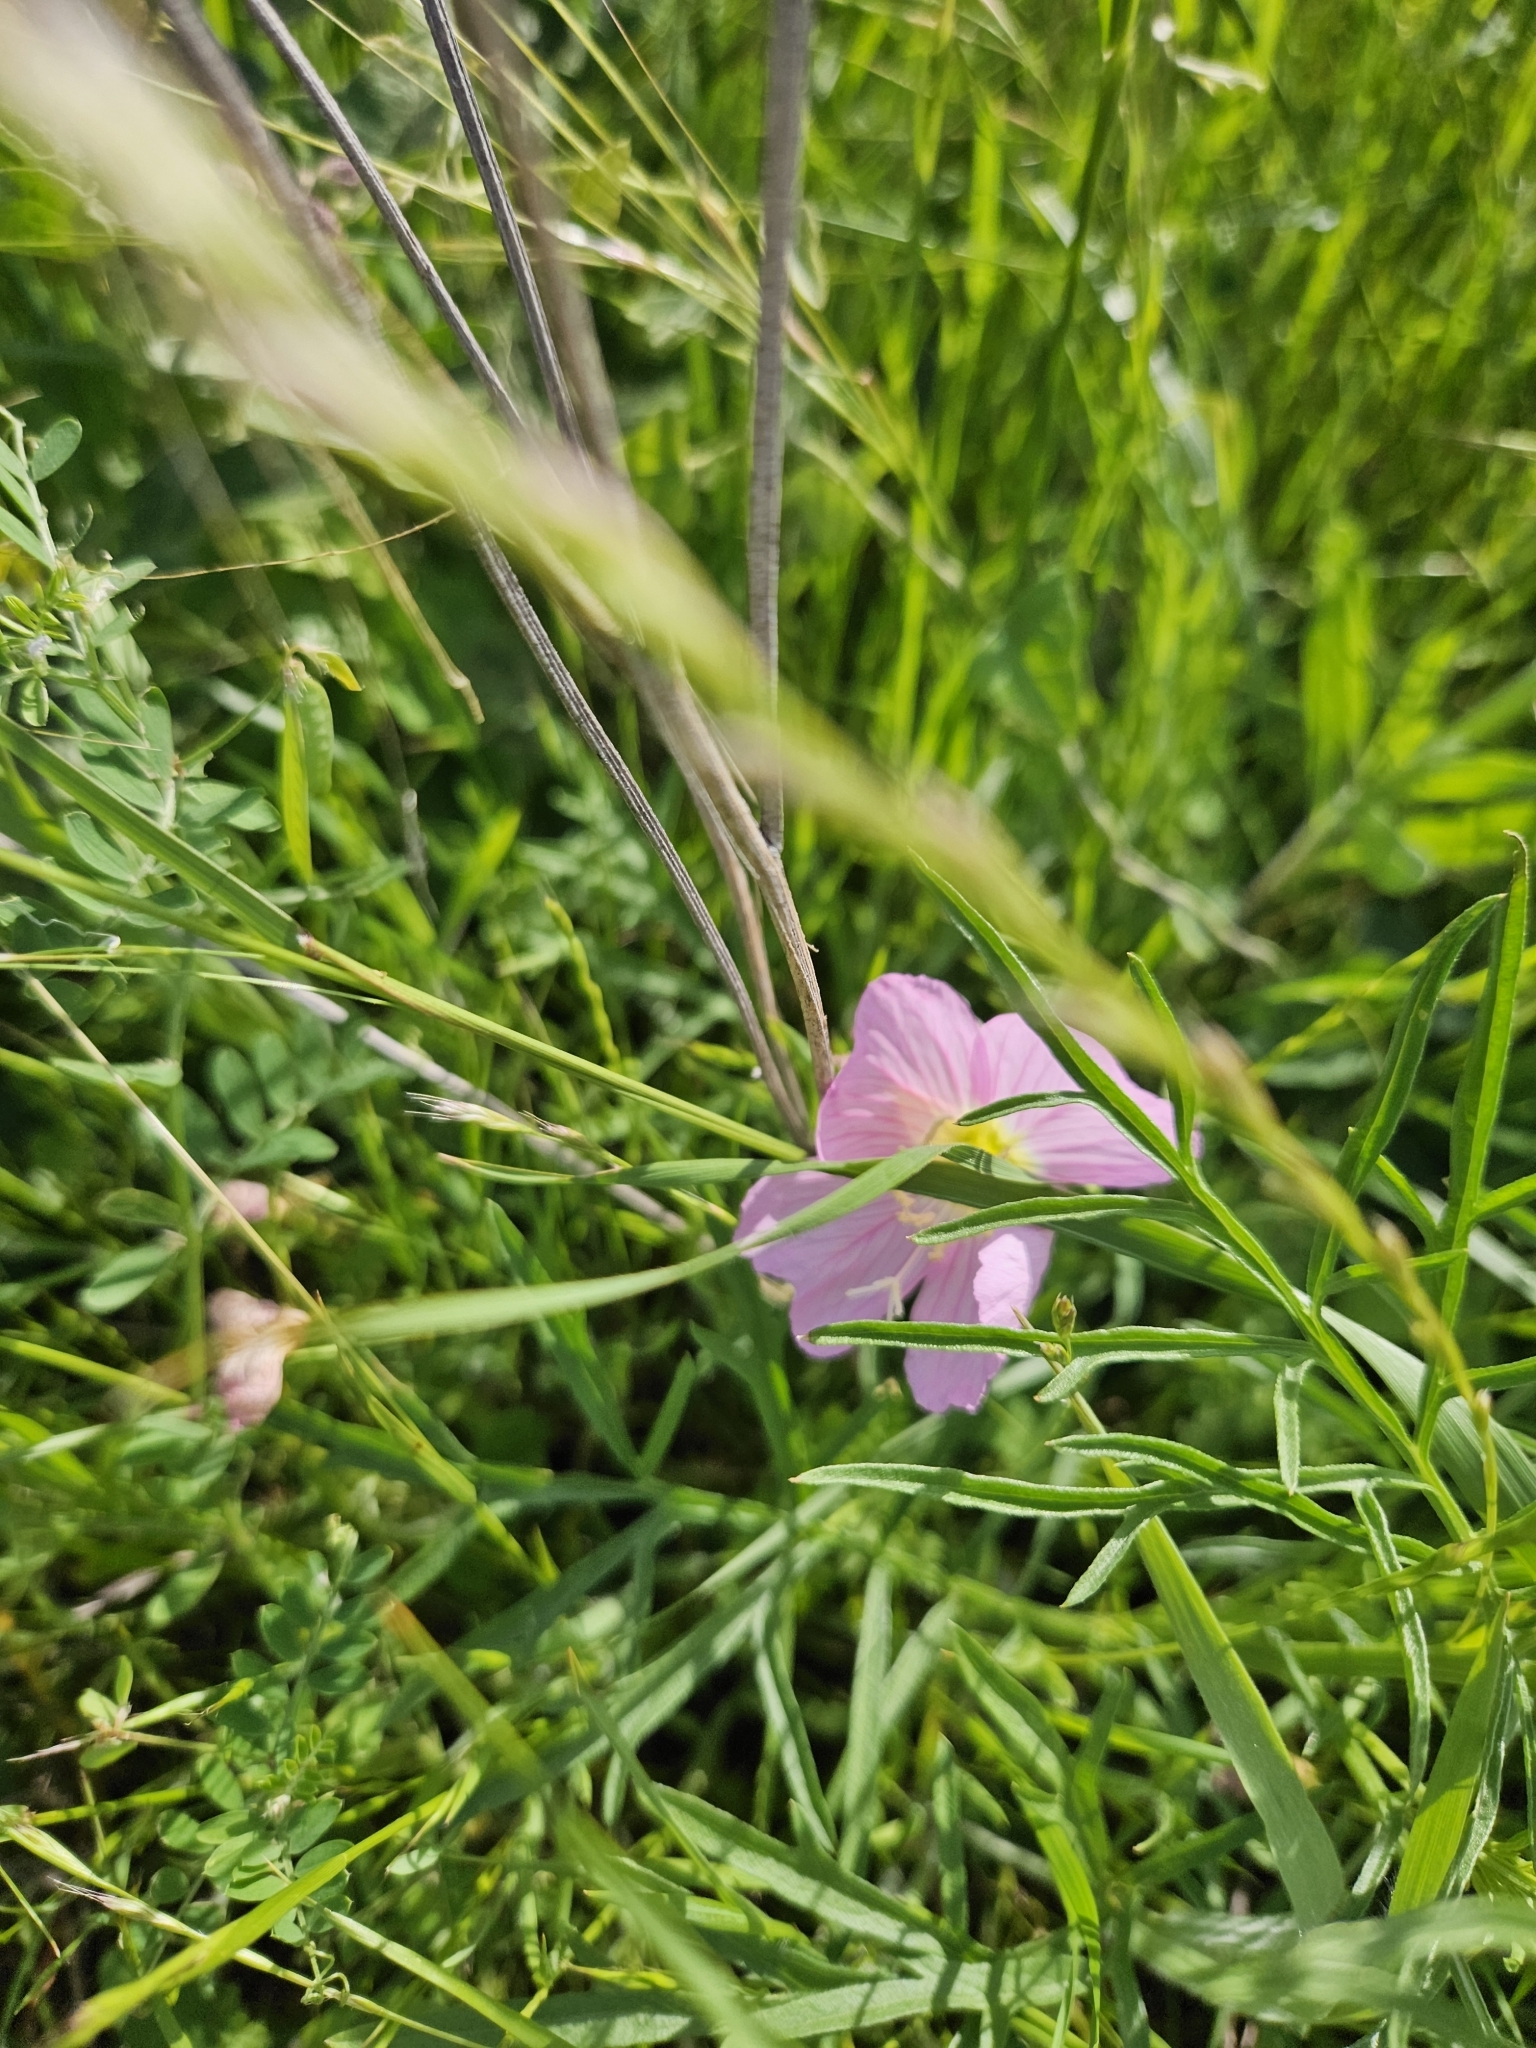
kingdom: Plantae
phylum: Tracheophyta
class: Magnoliopsida
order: Myrtales
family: Onagraceae
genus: Oenothera
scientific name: Oenothera speciosa
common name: White evening-primrose
